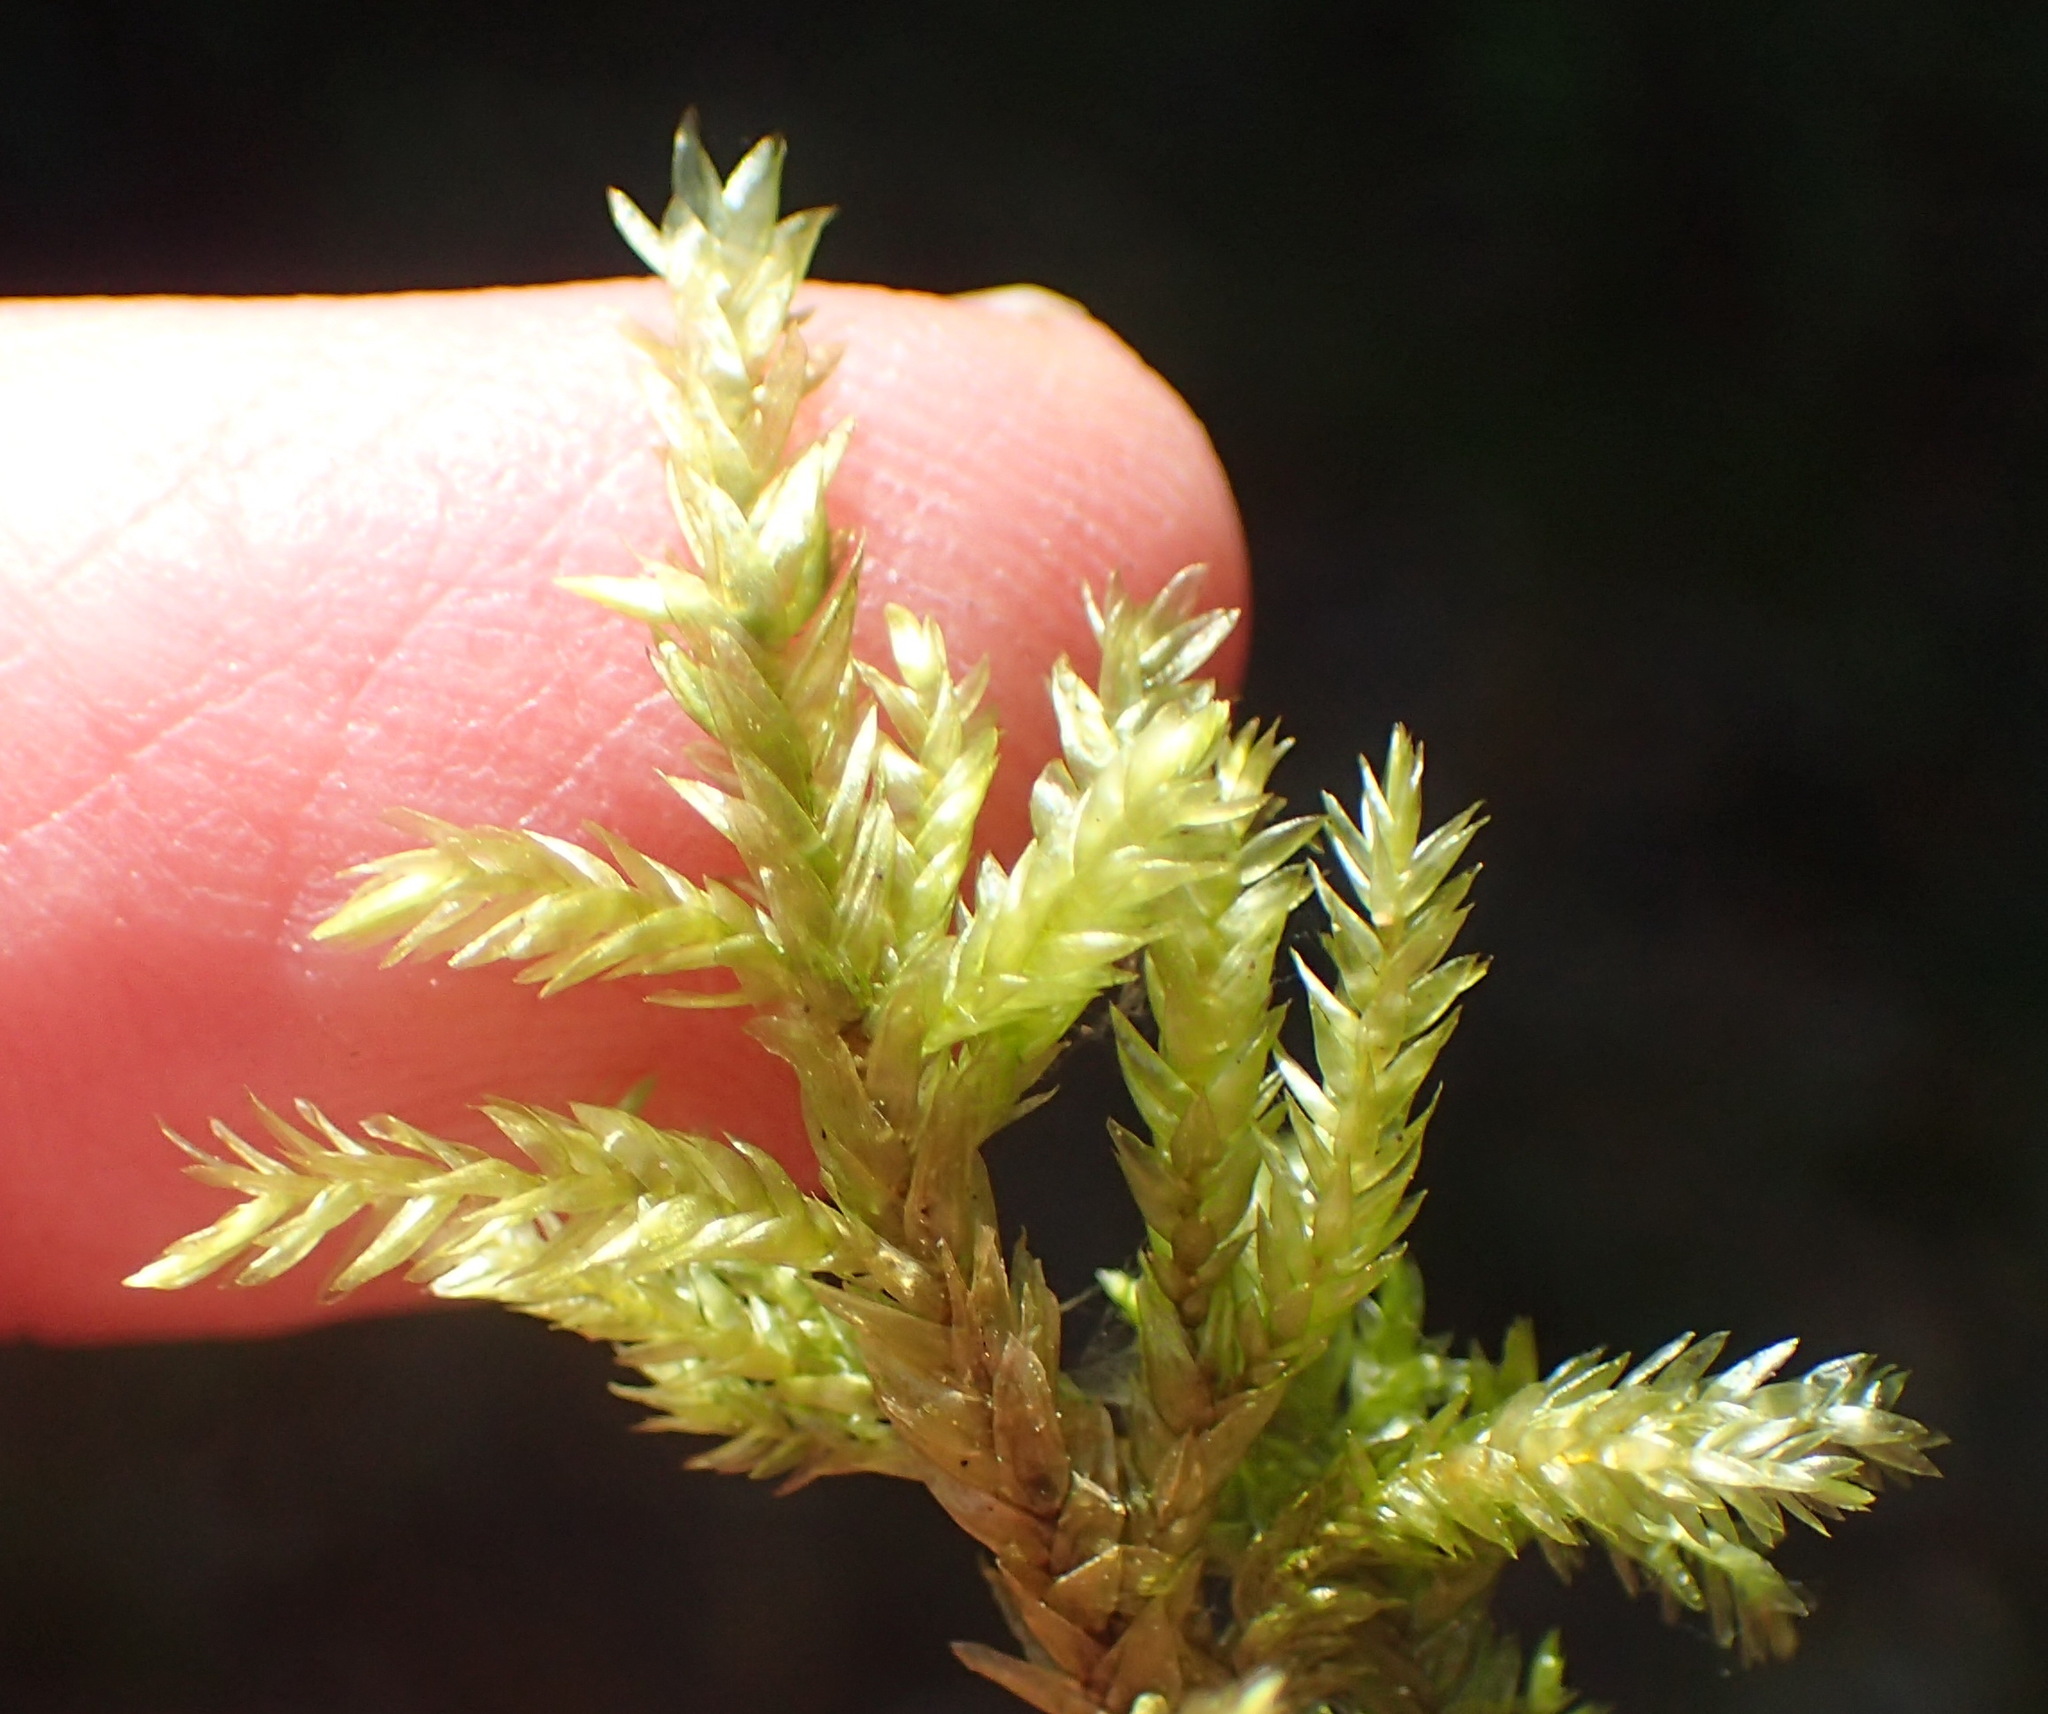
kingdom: Plantae
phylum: Bryophyta
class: Bryopsida
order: Hypnales
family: Neckeraceae
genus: Porotrichum
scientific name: Porotrichum madagassum
